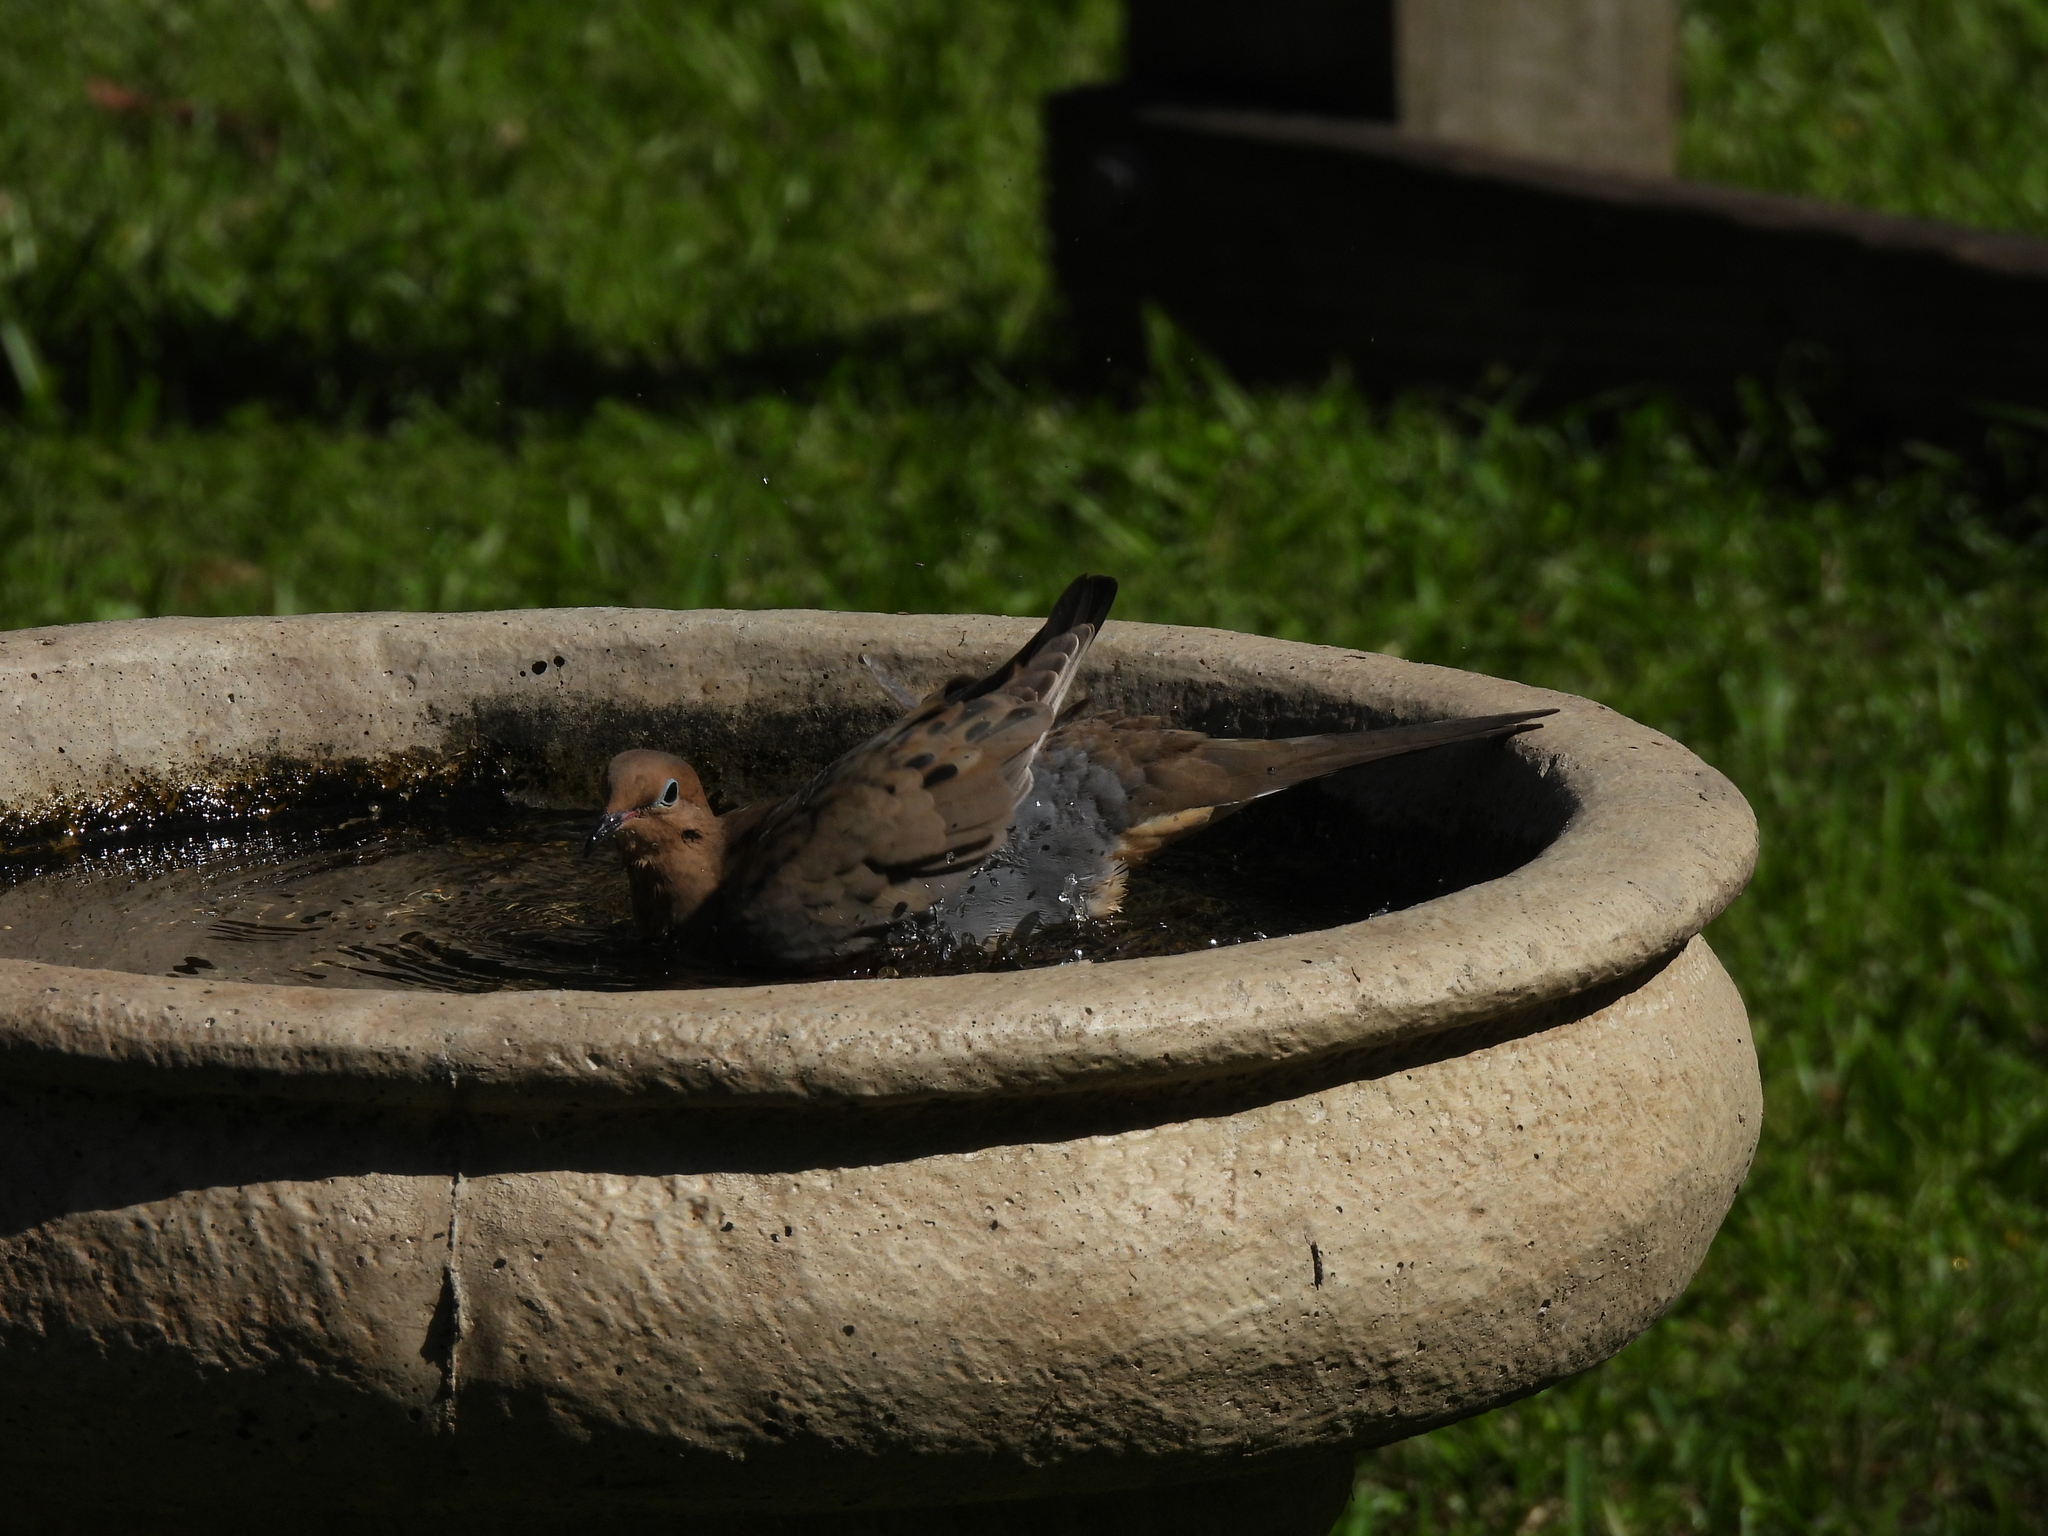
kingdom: Animalia
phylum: Chordata
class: Aves
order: Columbiformes
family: Columbidae
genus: Zenaida
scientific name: Zenaida macroura
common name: Mourning dove
